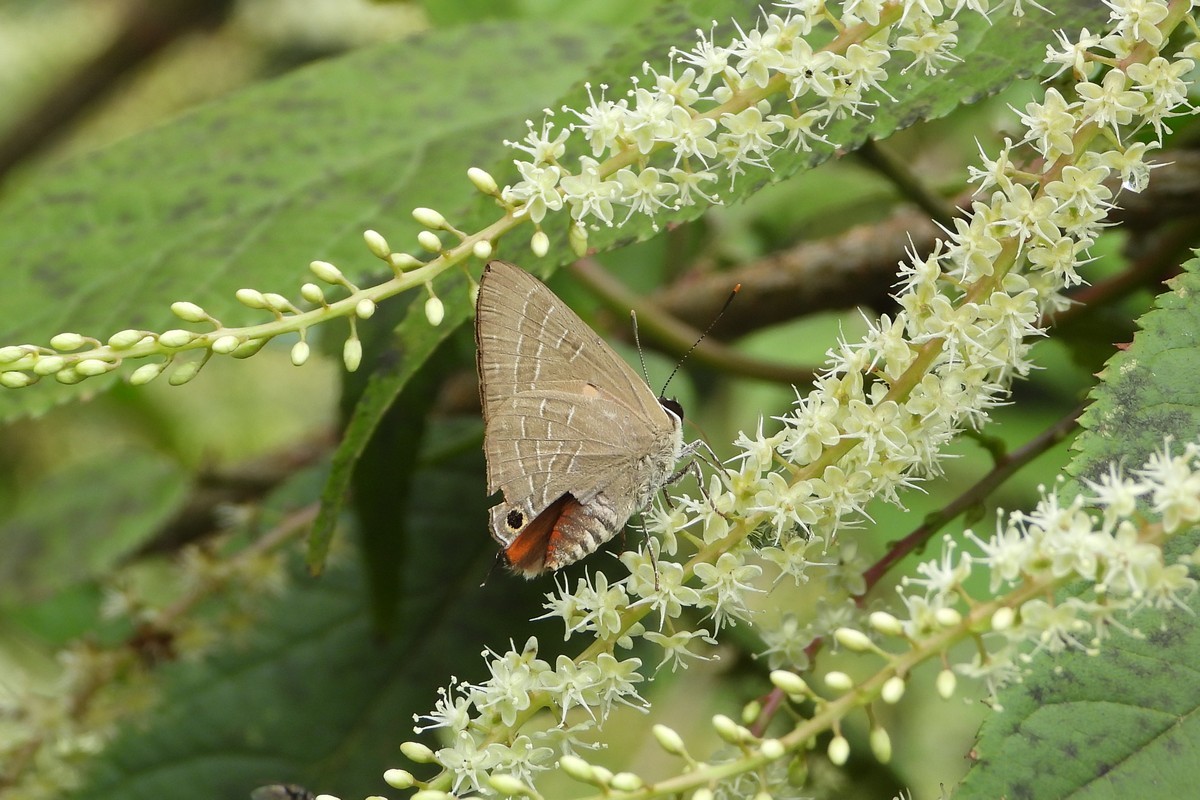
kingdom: Animalia
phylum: Arthropoda
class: Insecta
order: Lepidoptera
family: Lycaenidae
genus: Deudorix
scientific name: Deudorix epijarbas
